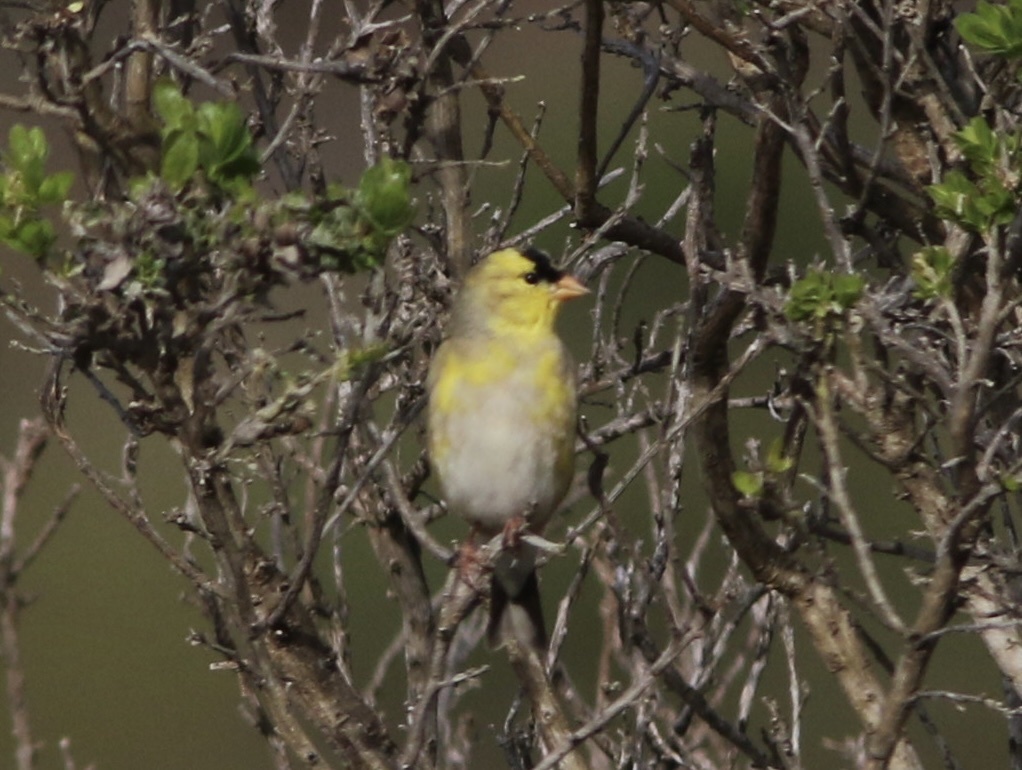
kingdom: Animalia
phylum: Chordata
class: Aves
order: Passeriformes
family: Fringillidae
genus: Spinus
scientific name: Spinus tristis
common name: American goldfinch
